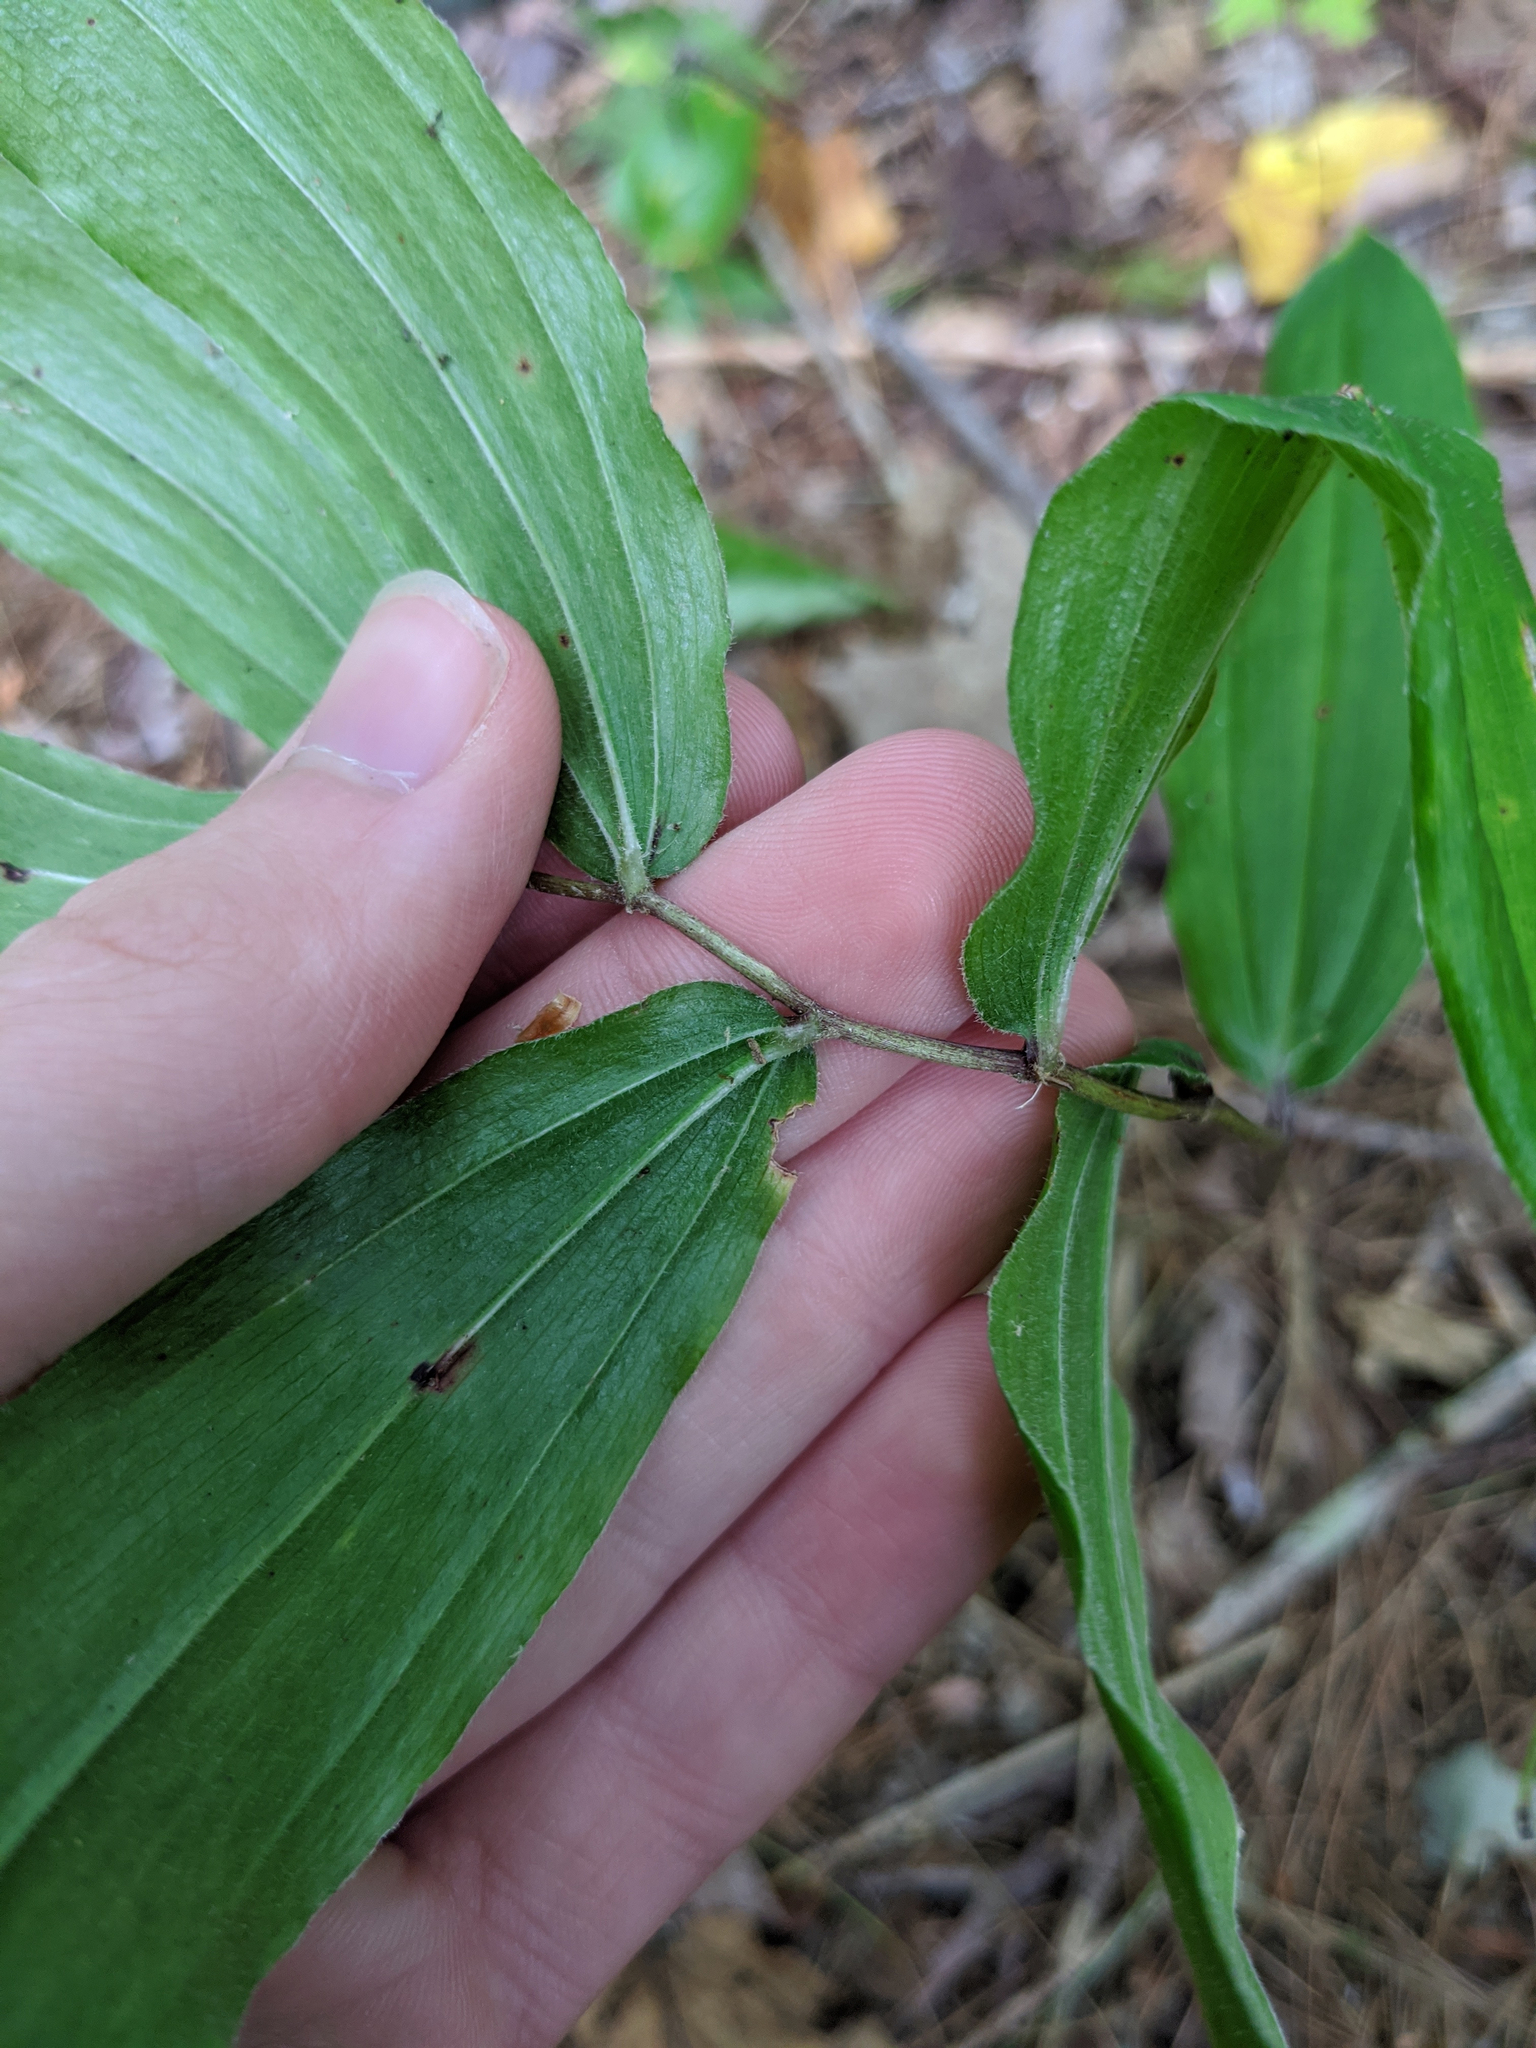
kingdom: Plantae
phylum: Tracheophyta
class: Liliopsida
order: Asparagales
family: Asparagaceae
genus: Maianthemum
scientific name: Maianthemum racemosum
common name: False spikenard
